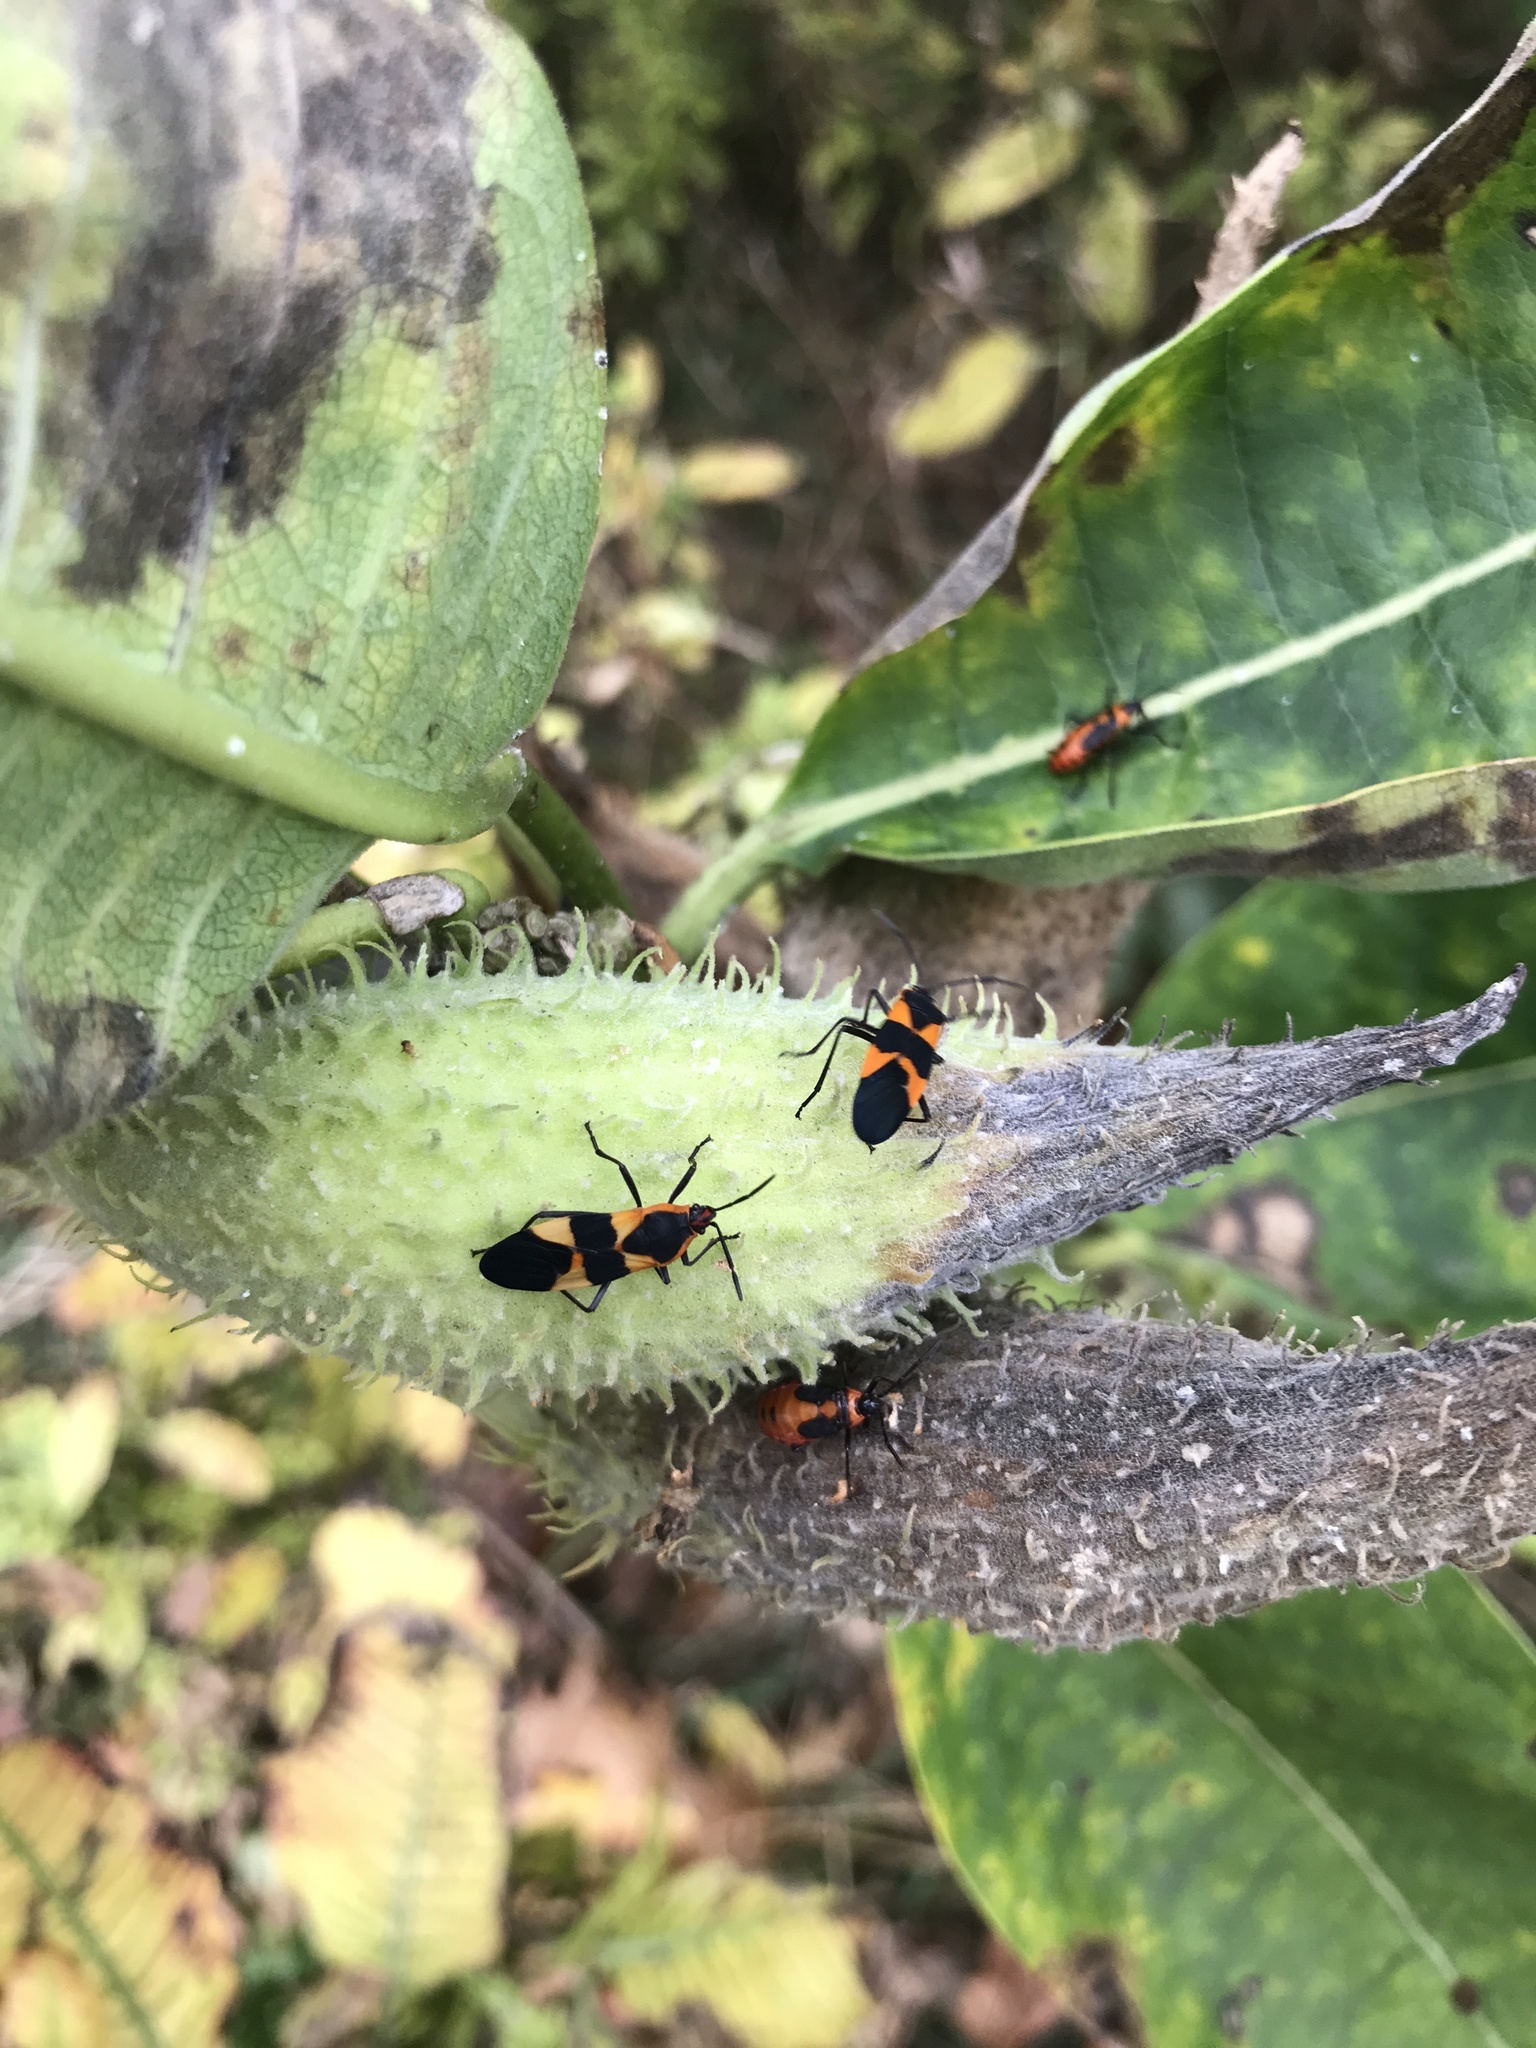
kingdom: Animalia
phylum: Arthropoda
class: Insecta
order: Hemiptera
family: Lygaeidae
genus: Oncopeltus
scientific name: Oncopeltus fasciatus
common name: Large milkweed bug
